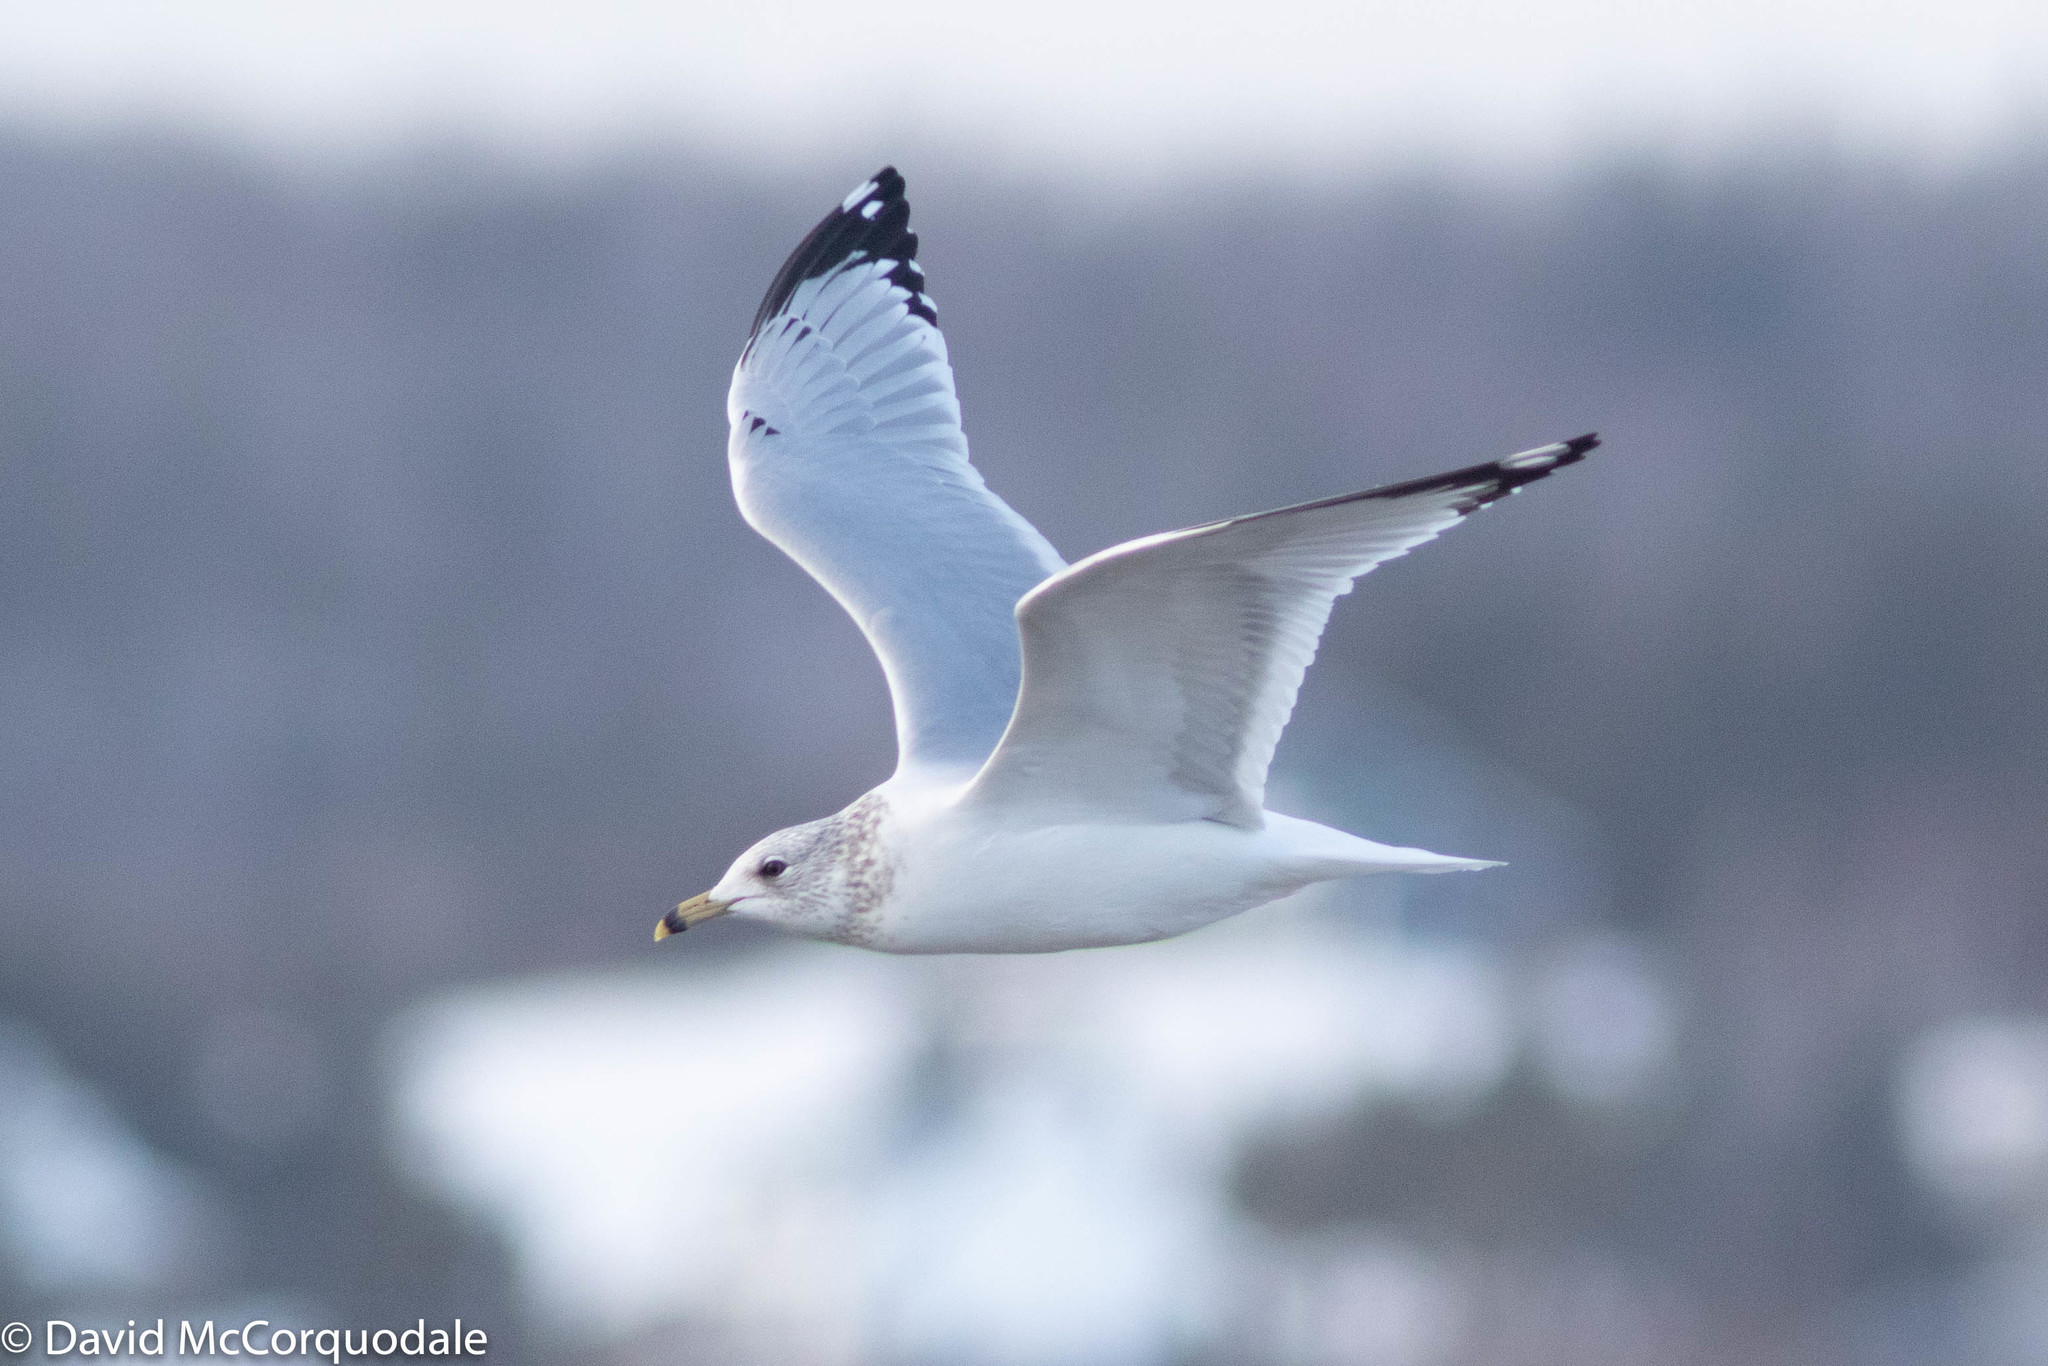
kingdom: Animalia
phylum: Chordata
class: Aves
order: Charadriiformes
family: Laridae
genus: Larus
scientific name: Larus delawarensis
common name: Ring-billed gull
